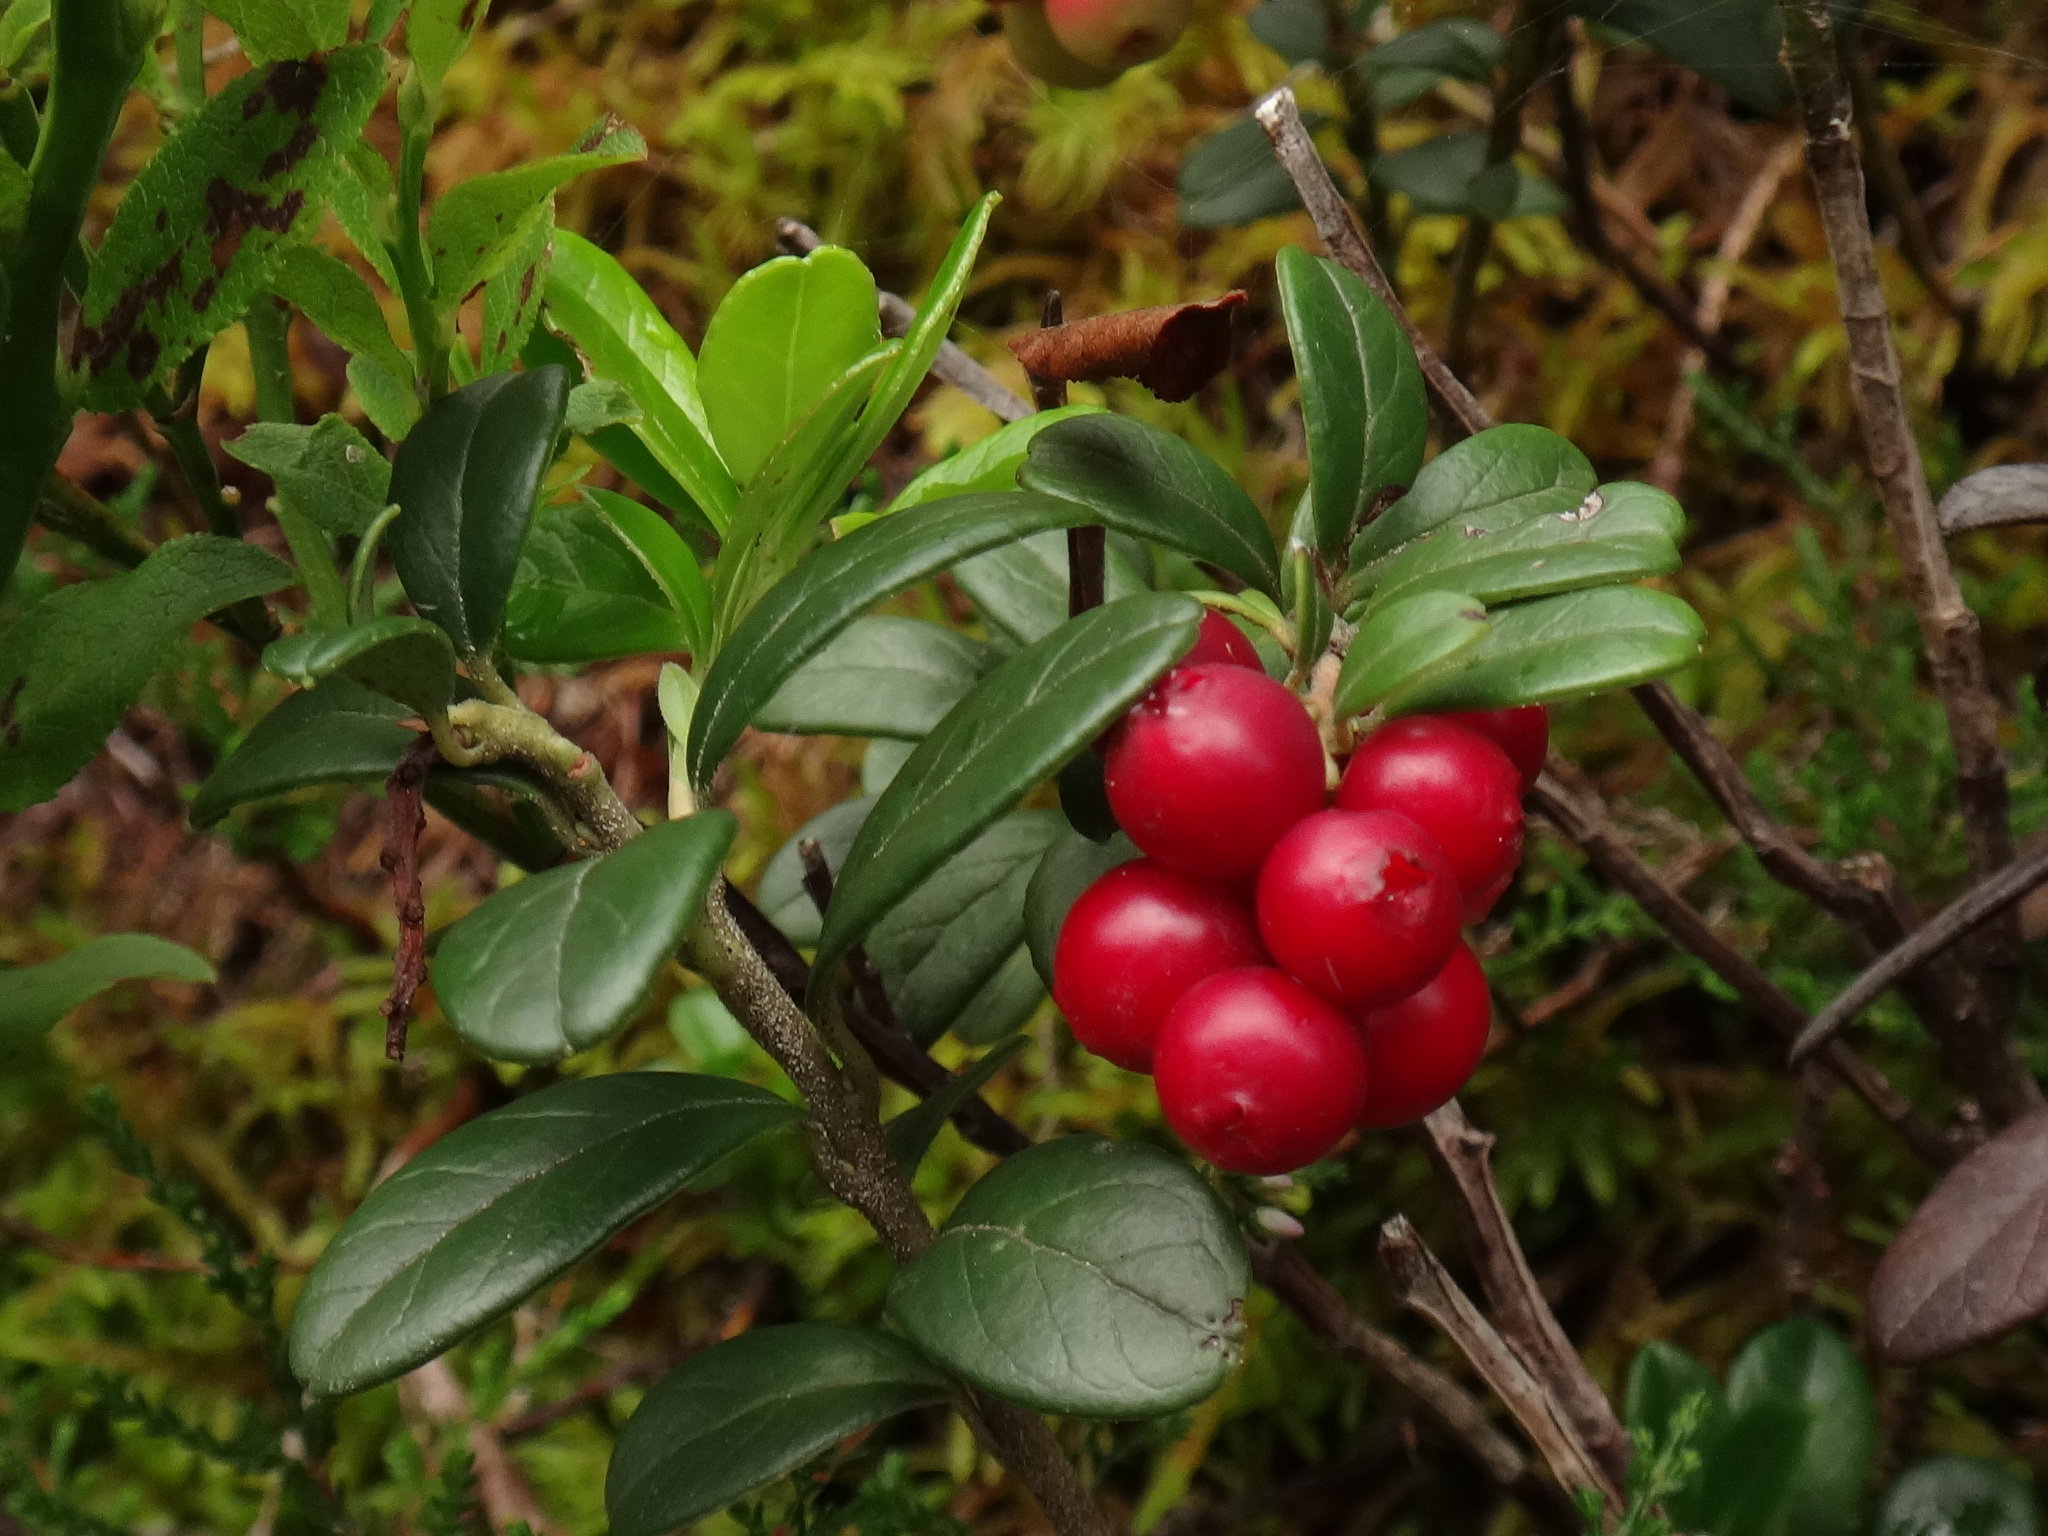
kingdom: Plantae
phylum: Tracheophyta
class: Magnoliopsida
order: Ericales
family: Ericaceae
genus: Vaccinium
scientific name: Vaccinium vitis-idaea
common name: Cowberry
